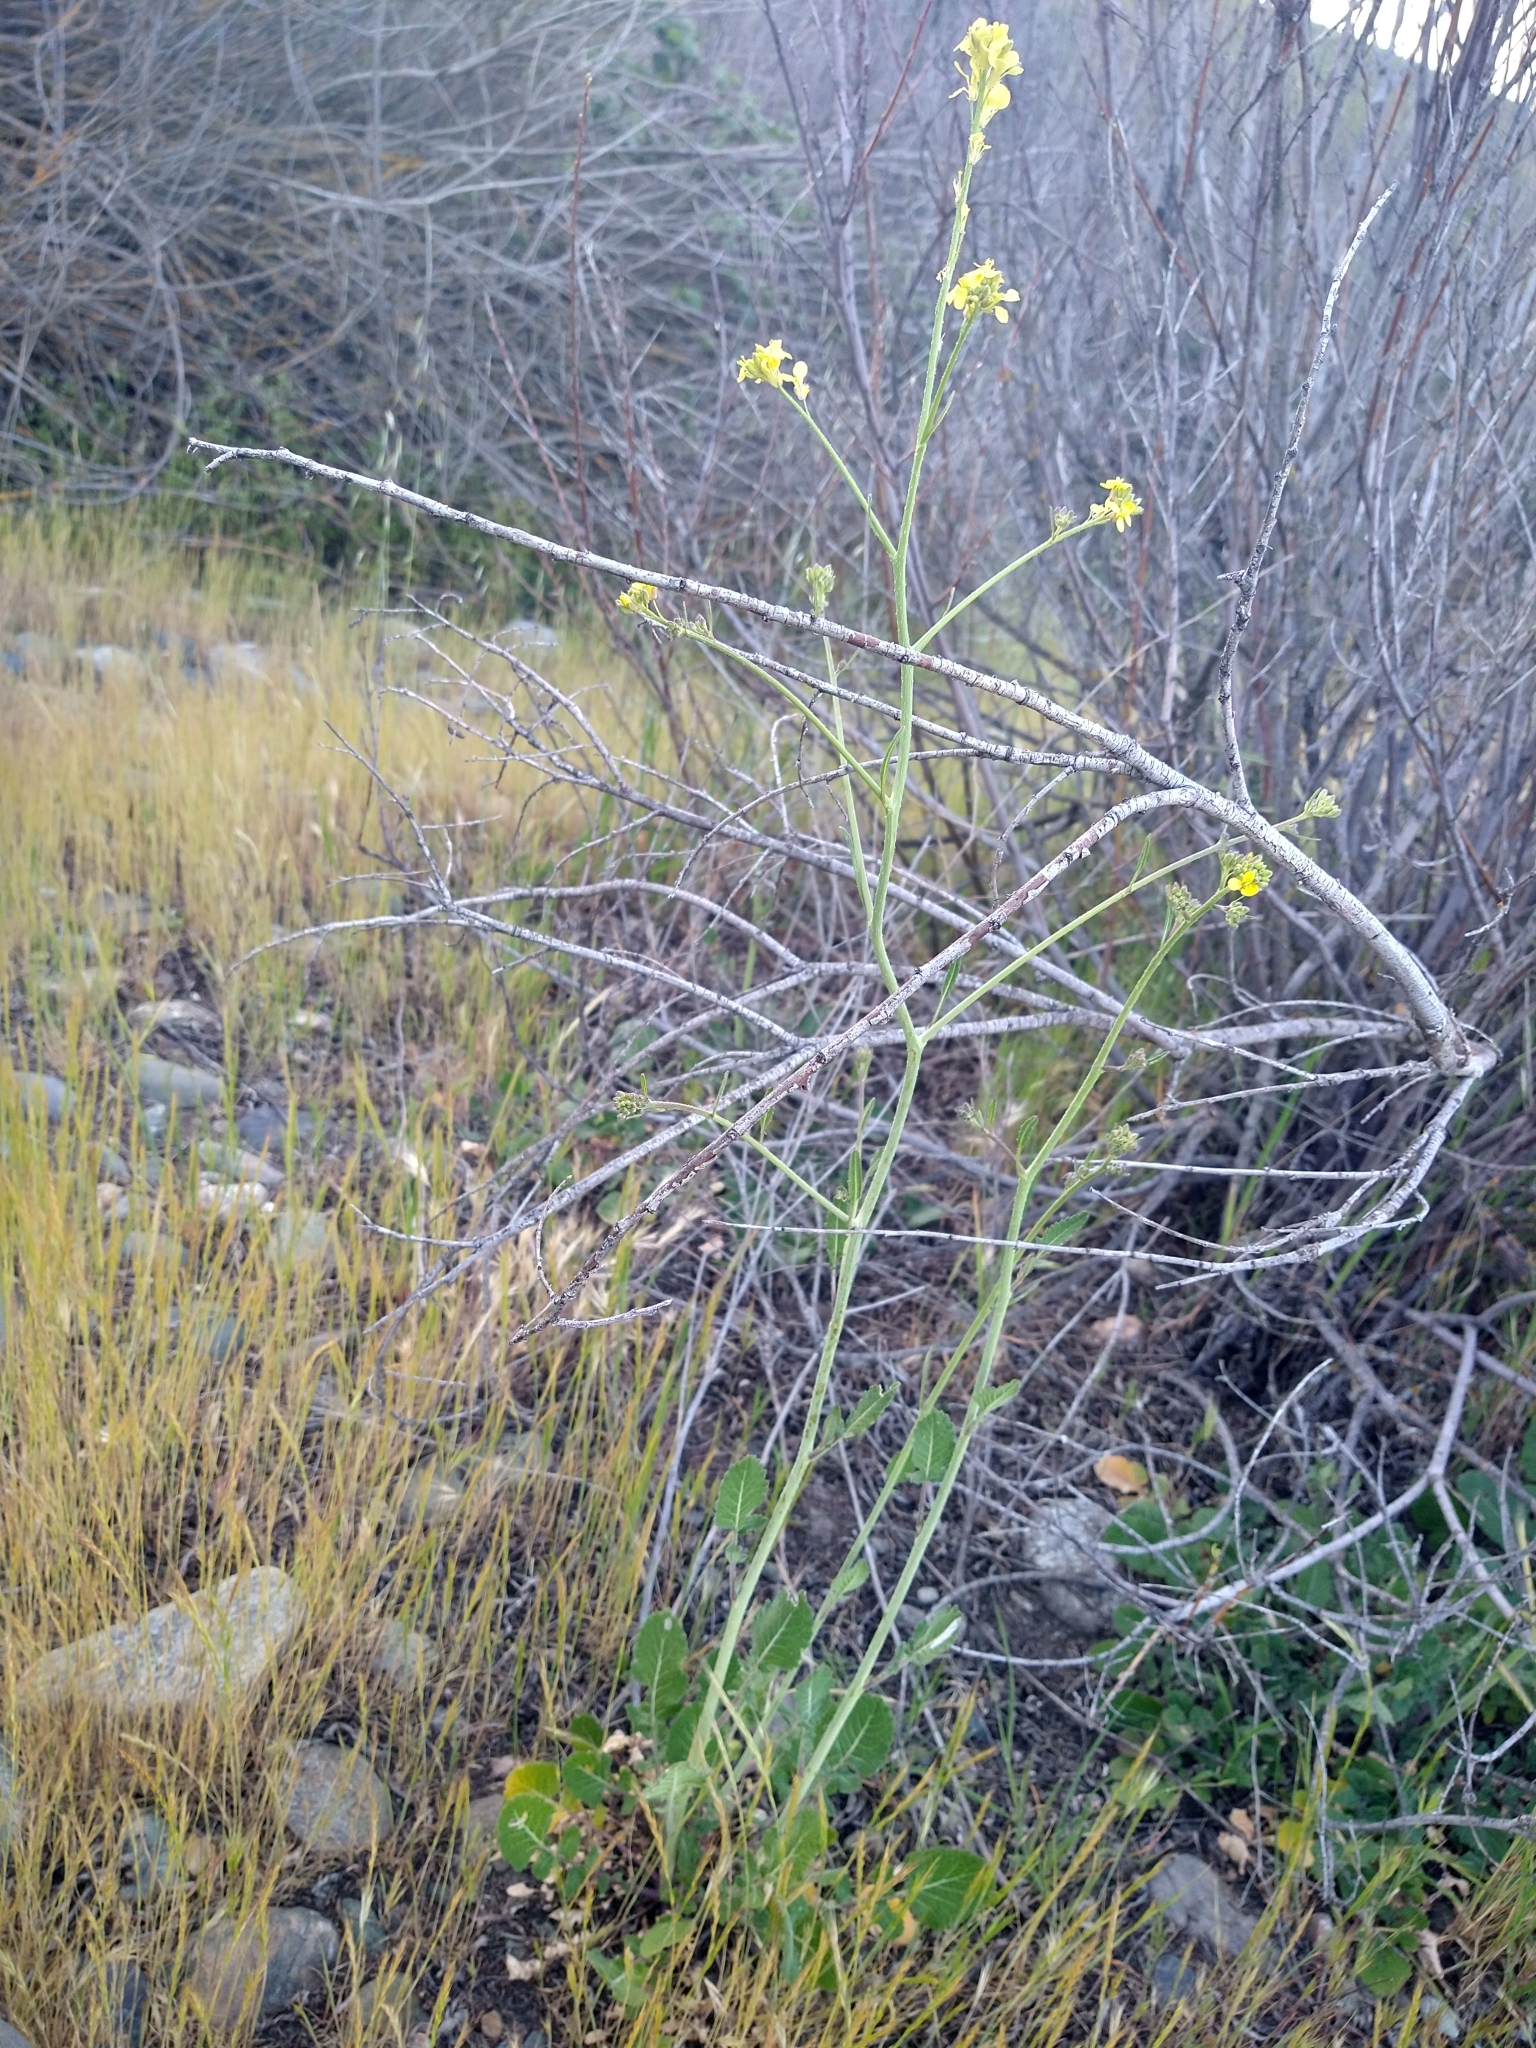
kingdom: Plantae
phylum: Tracheophyta
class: Magnoliopsida
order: Brassicales
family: Brassicaceae
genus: Hirschfeldia
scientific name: Hirschfeldia incana
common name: Hoary mustard
